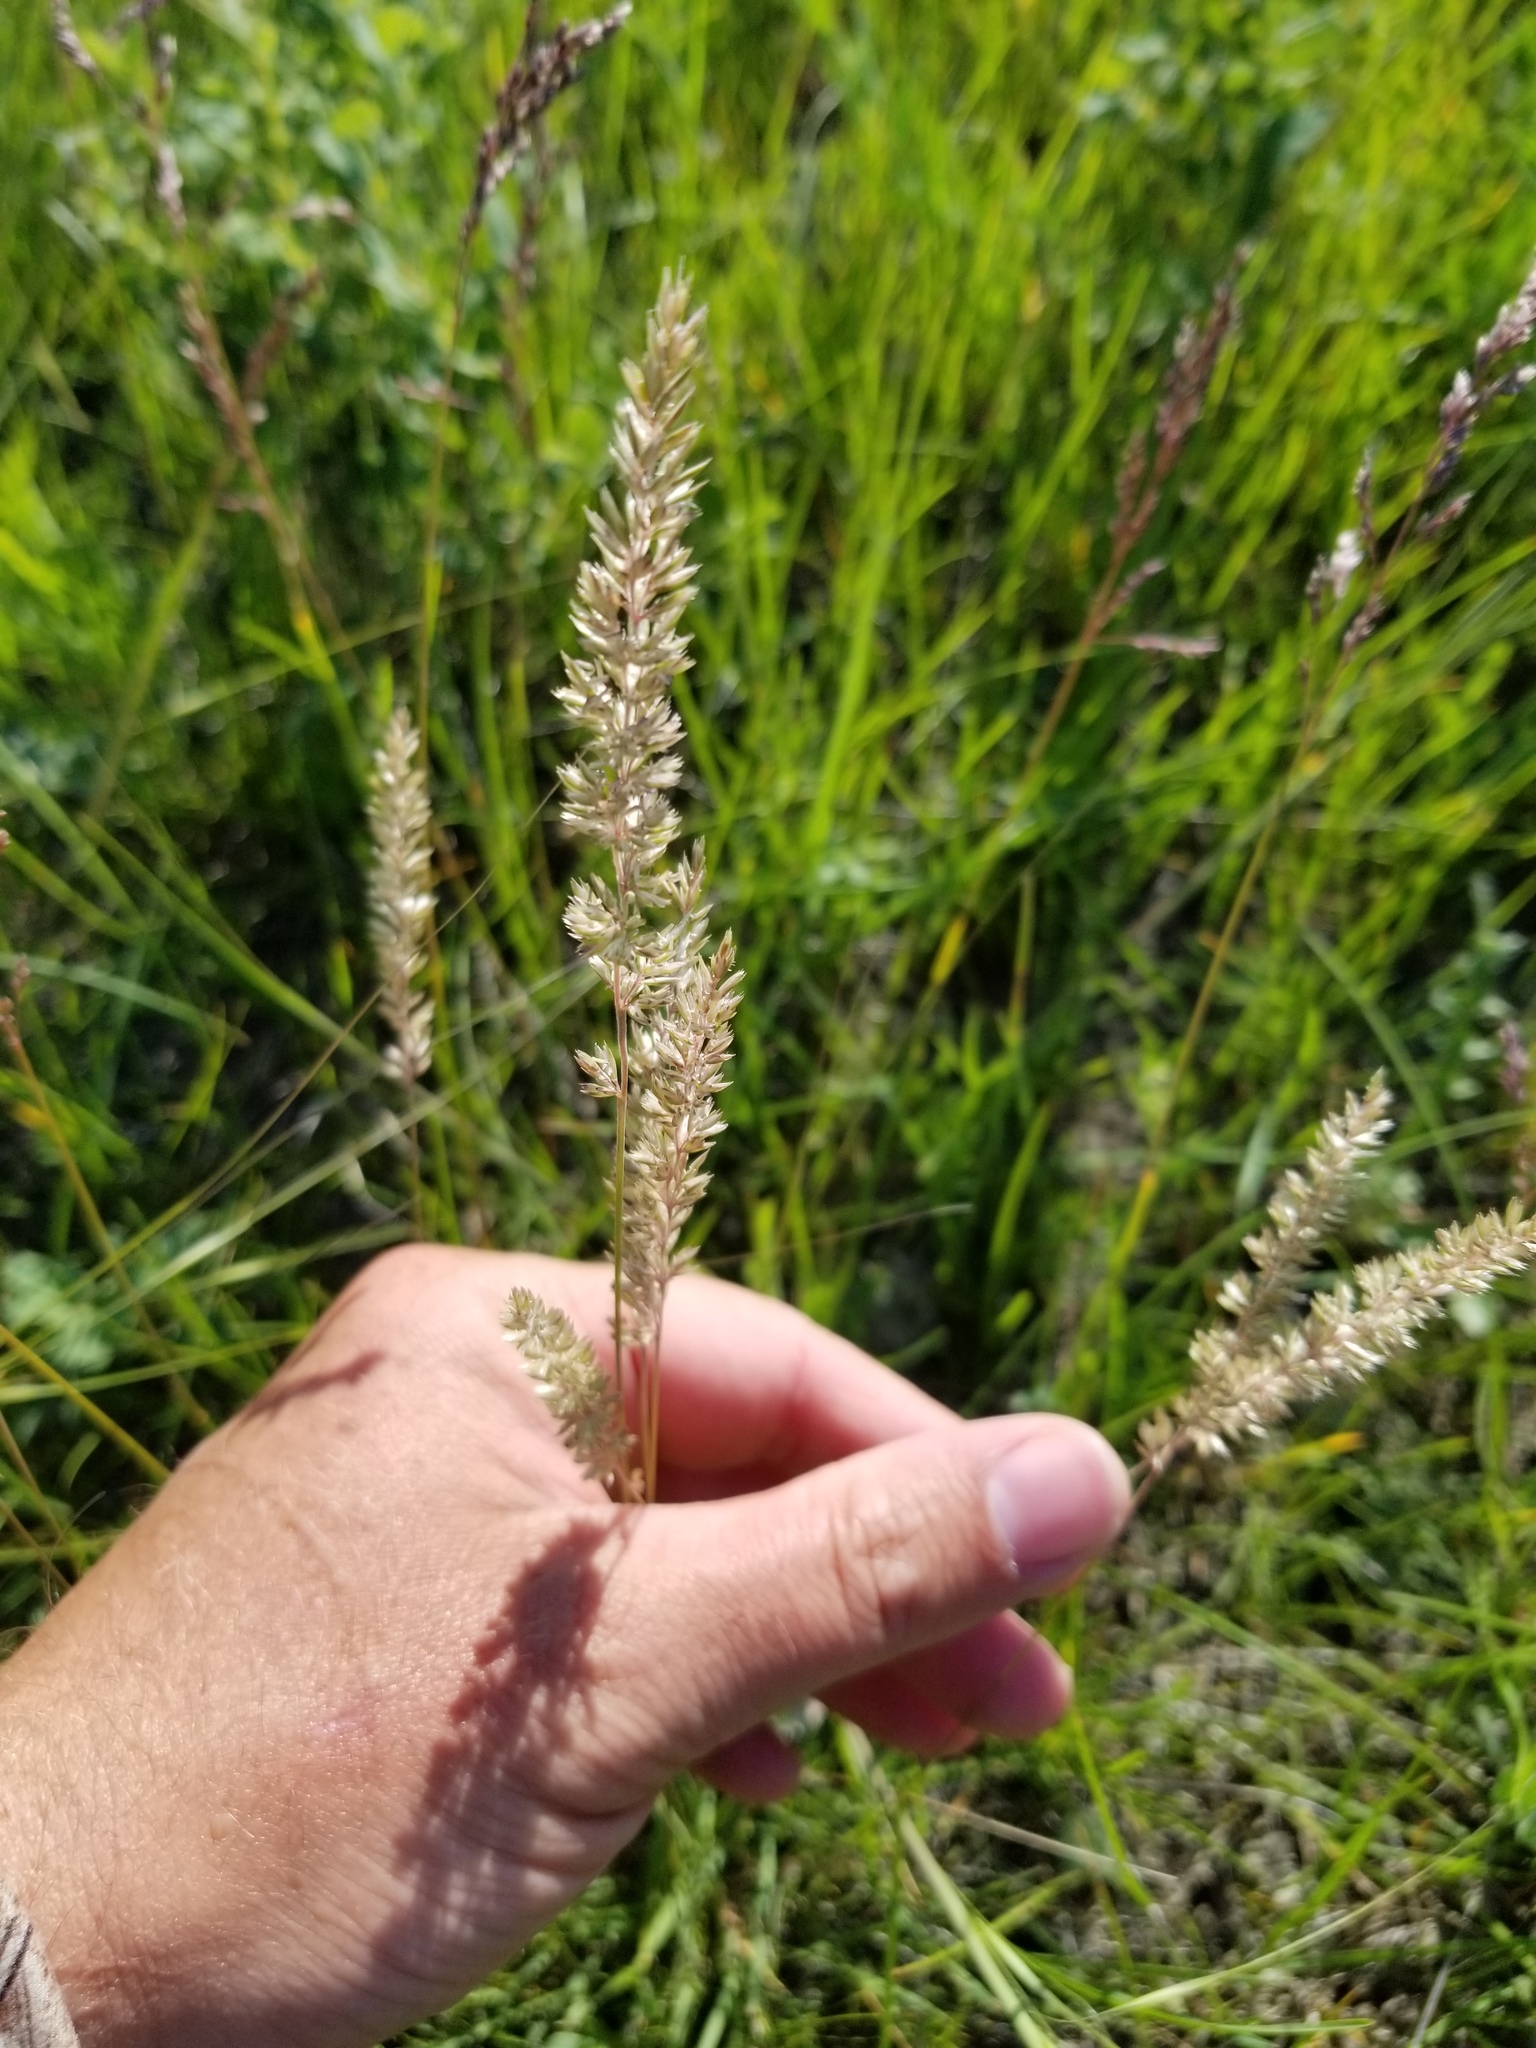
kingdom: Plantae
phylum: Tracheophyta
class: Liliopsida
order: Poales
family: Poaceae
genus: Koeleria
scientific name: Koeleria macrantha
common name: Crested hair-grass
